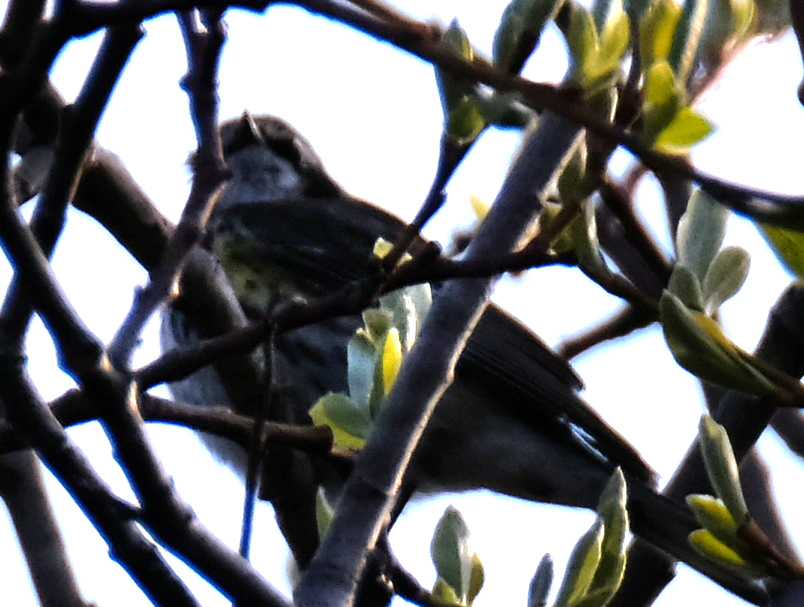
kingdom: Animalia
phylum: Chordata
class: Aves
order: Passeriformes
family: Parulidae
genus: Setophaga
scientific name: Setophaga coronata
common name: Myrtle warbler
